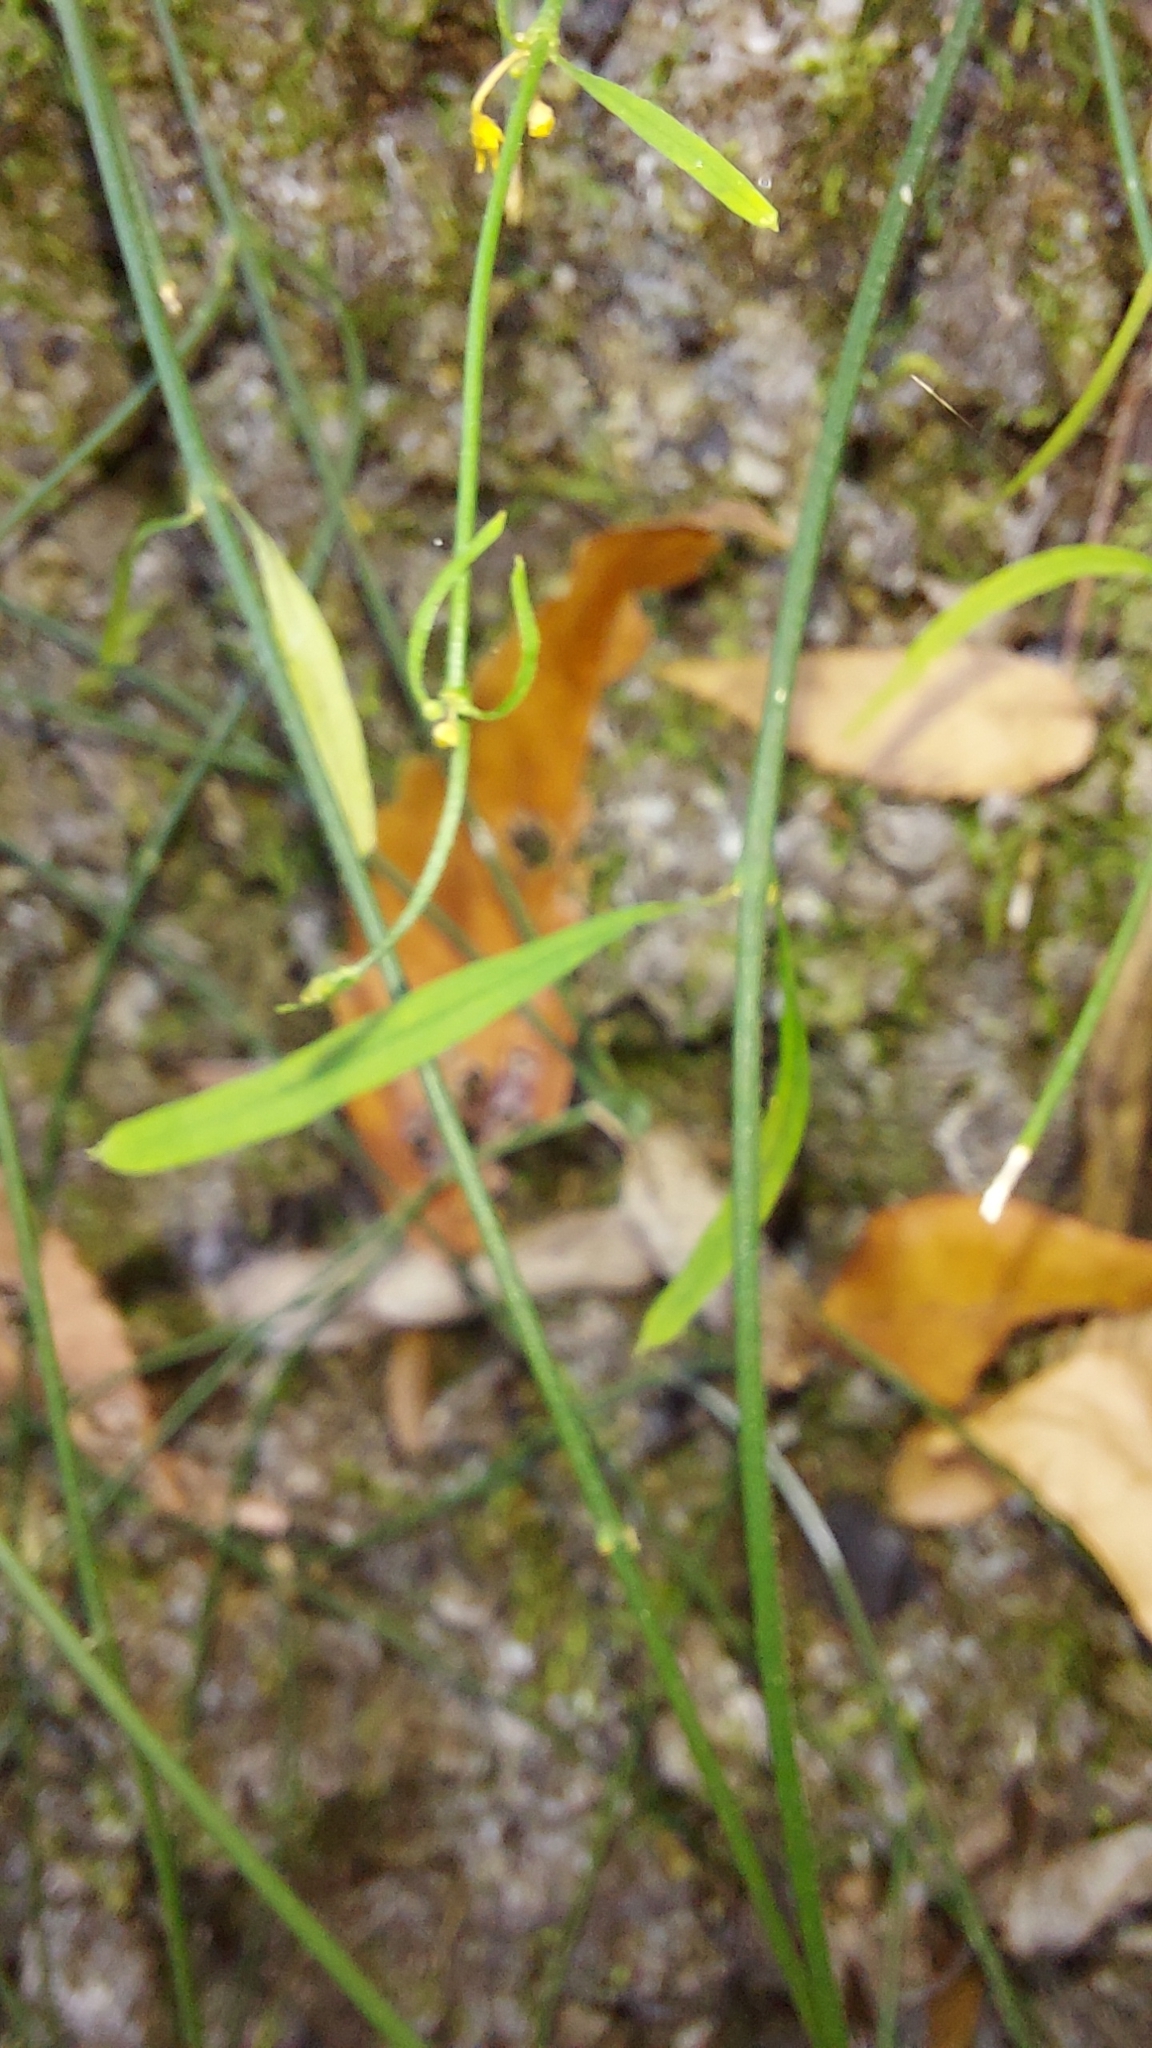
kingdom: Plantae
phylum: Tracheophyta
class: Magnoliopsida
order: Gentianales
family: Apocynaceae
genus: Orthosia
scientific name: Orthosia scoparia
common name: Leafless swallow-wort
